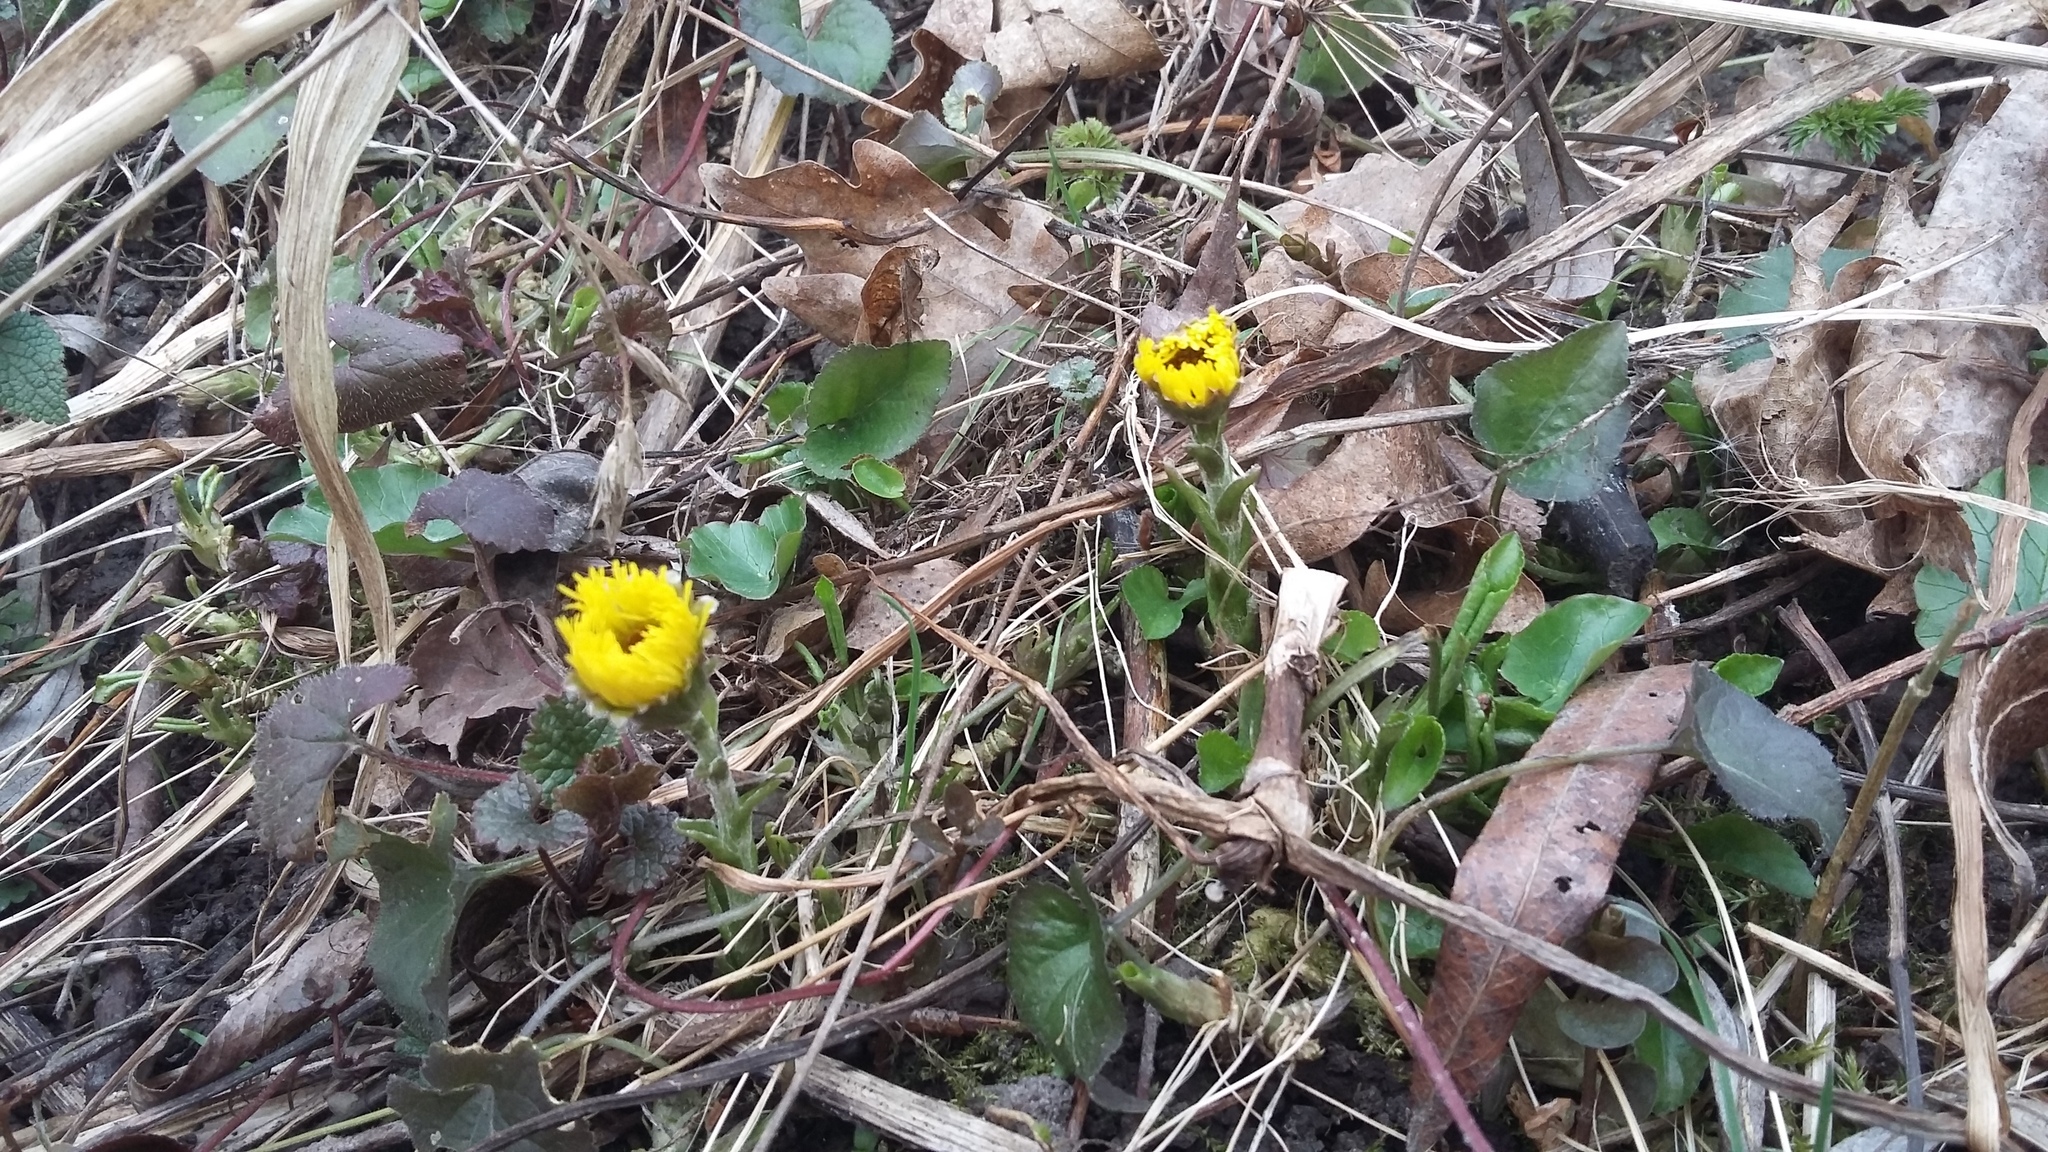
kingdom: Plantae
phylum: Tracheophyta
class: Magnoliopsida
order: Asterales
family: Asteraceae
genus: Tussilago
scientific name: Tussilago farfara
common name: Coltsfoot
